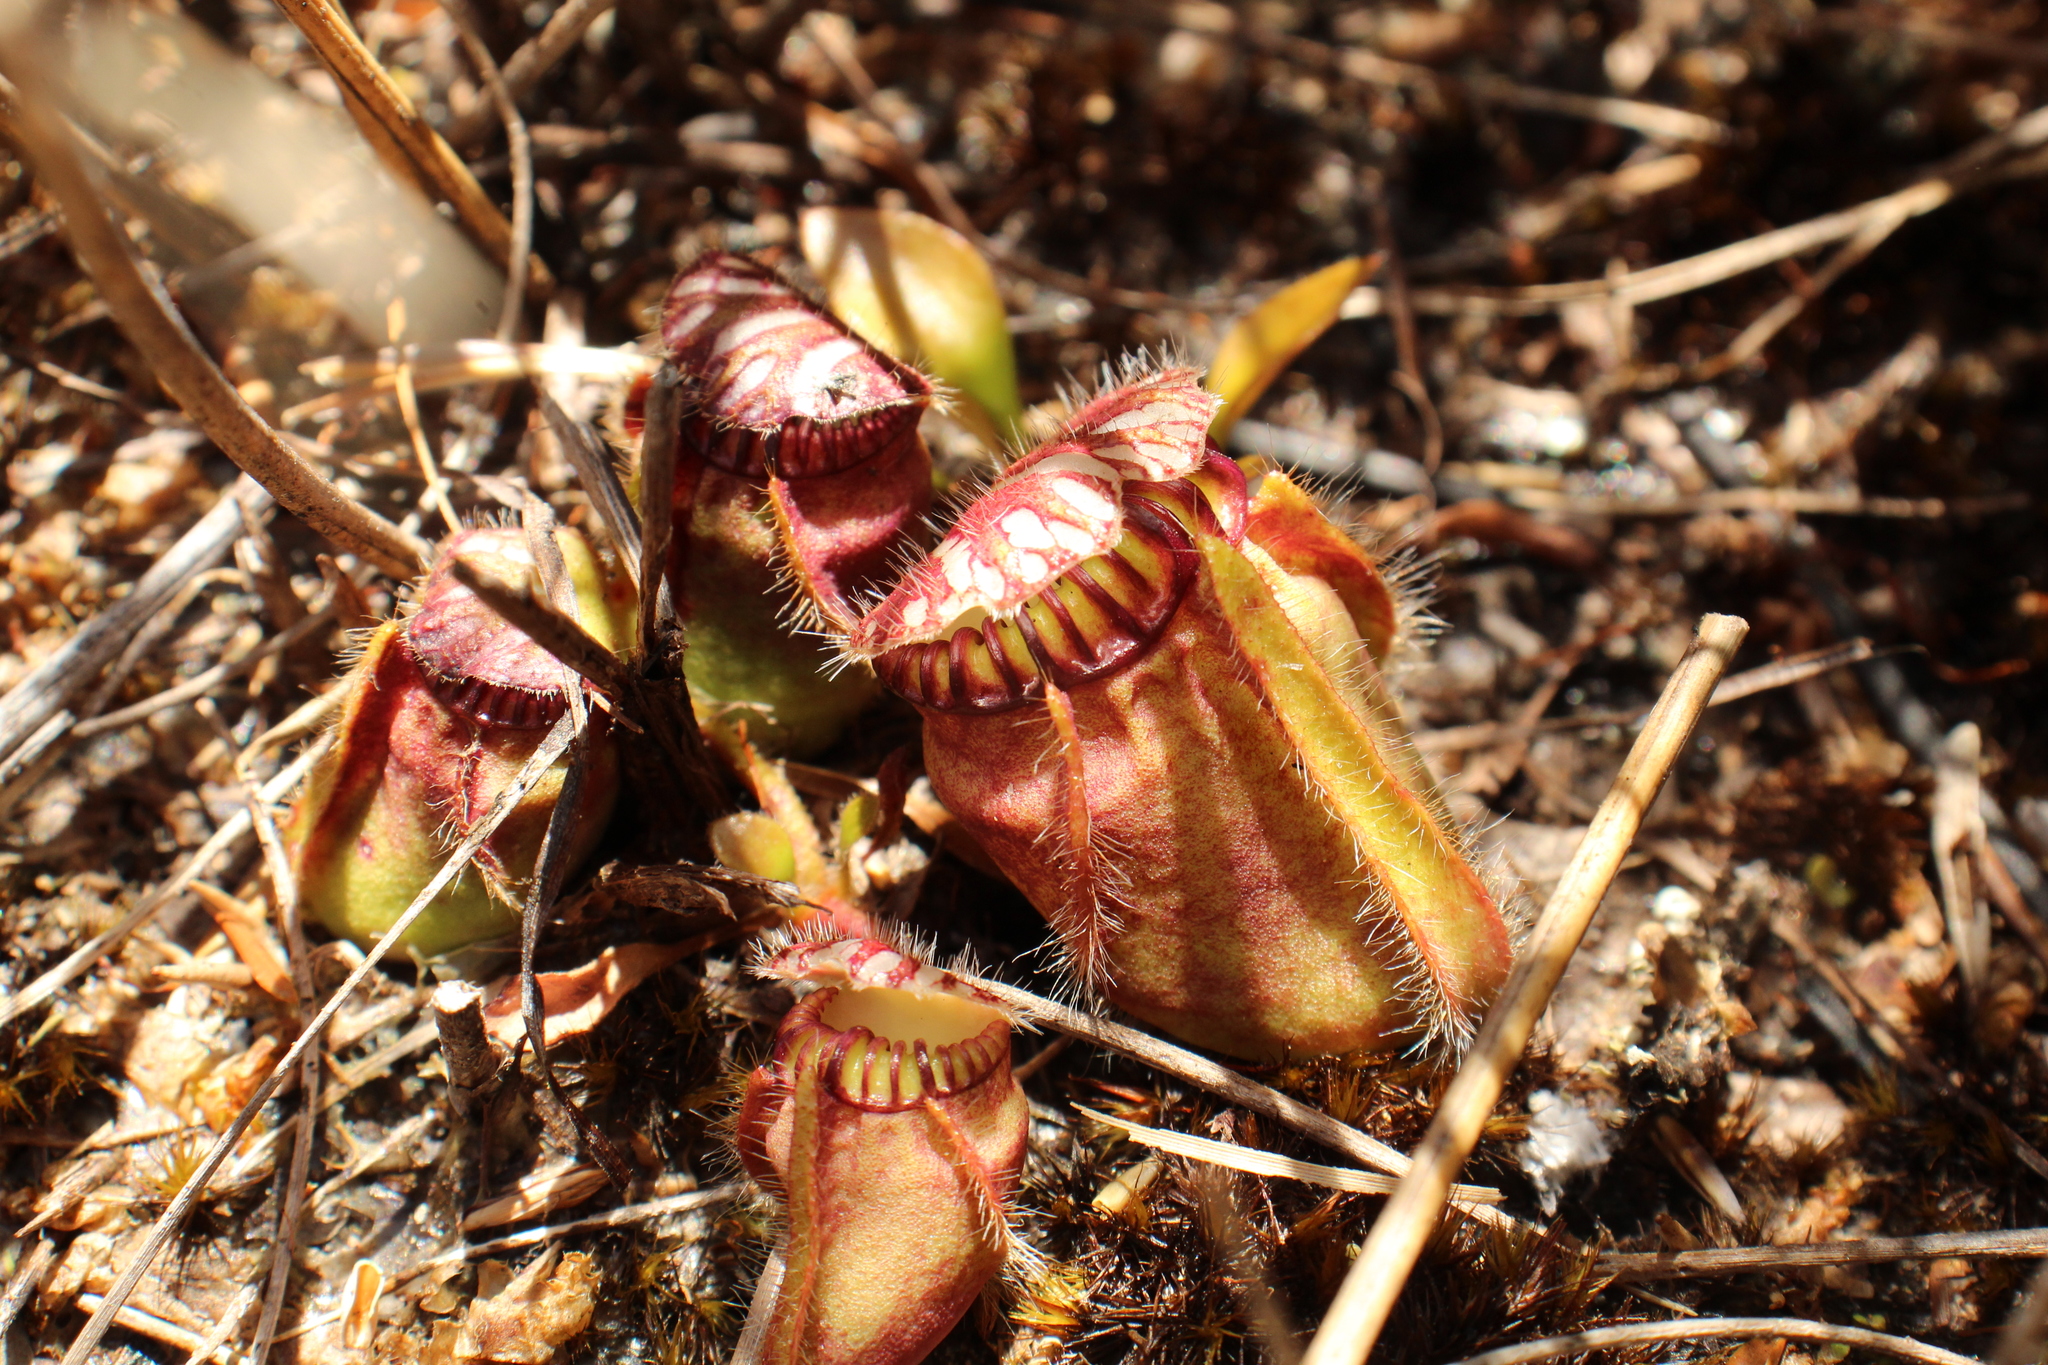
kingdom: Plantae
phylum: Tracheophyta
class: Magnoliopsida
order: Oxalidales
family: Cephalotaceae
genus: Cephalotus
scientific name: Cephalotus follicularis
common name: Australian pitcher plant
